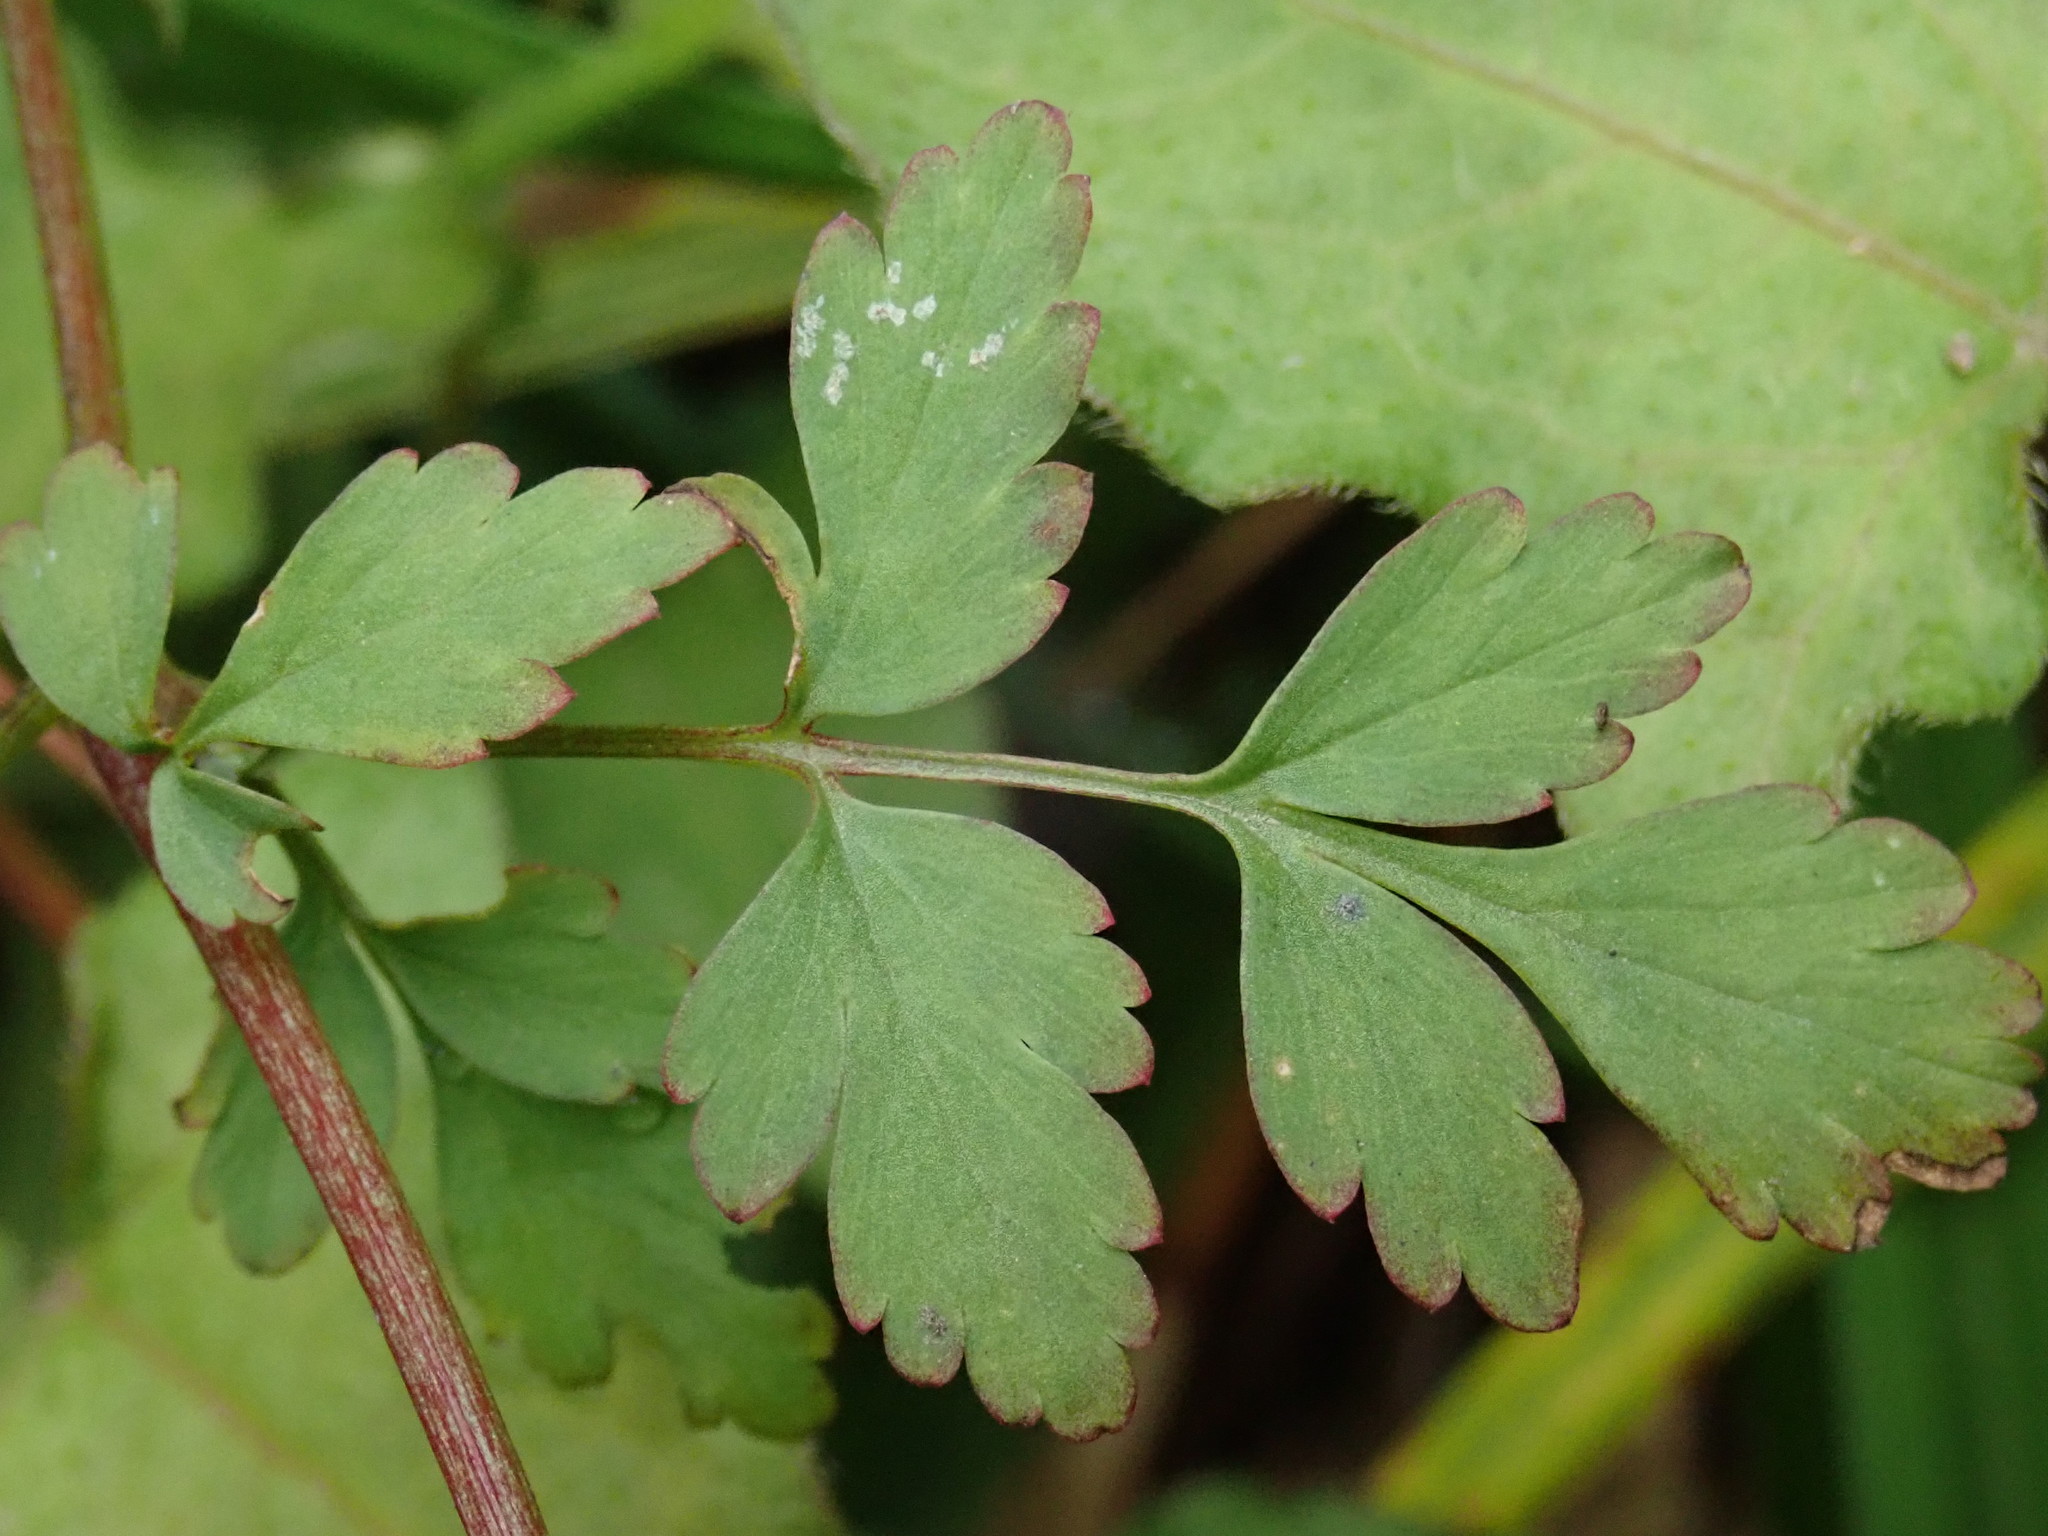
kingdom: Plantae
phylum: Tracheophyta
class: Magnoliopsida
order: Ranunculales
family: Papaveraceae
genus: Corydalis
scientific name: Corydalis pallida
